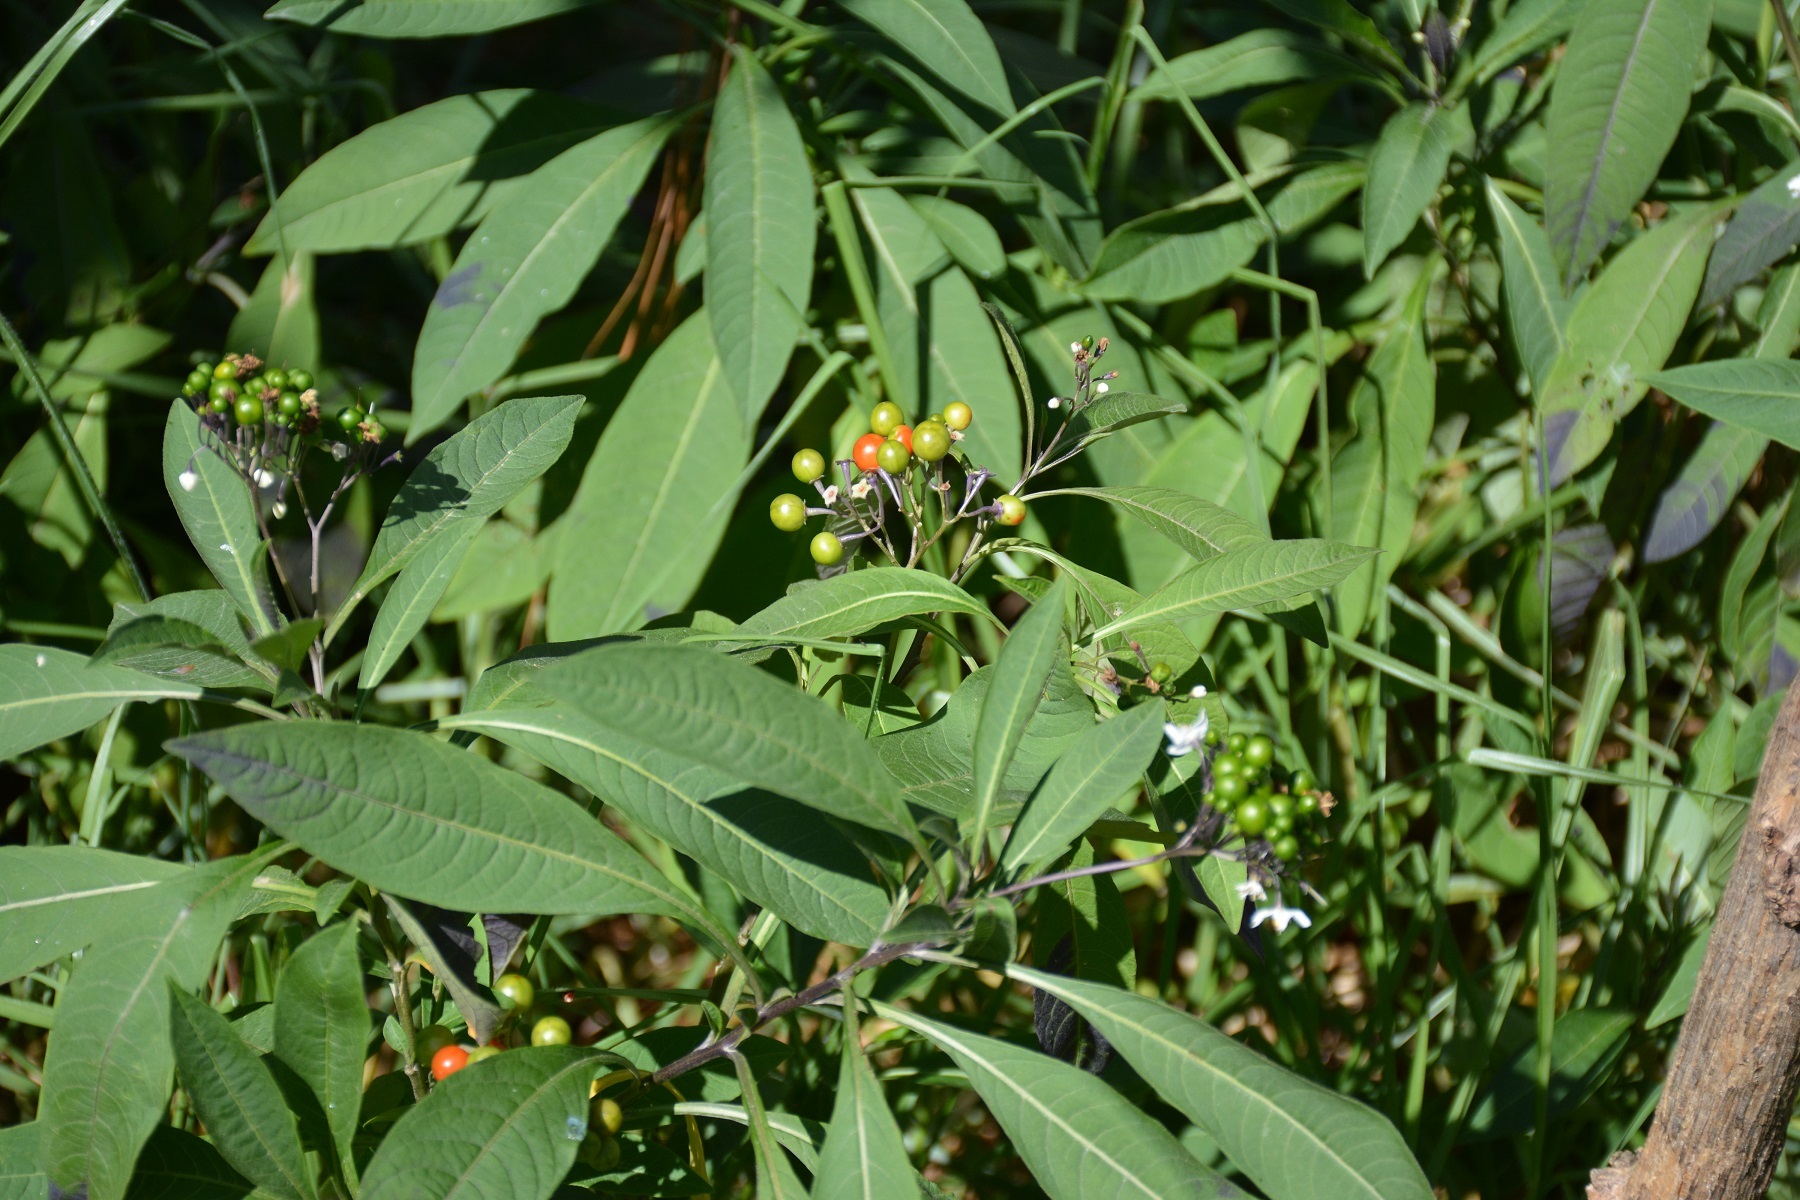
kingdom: Plantae
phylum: Tracheophyta
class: Magnoliopsida
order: Solanales
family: Solanaceae
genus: Solanum
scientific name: Solanum pubigerum
